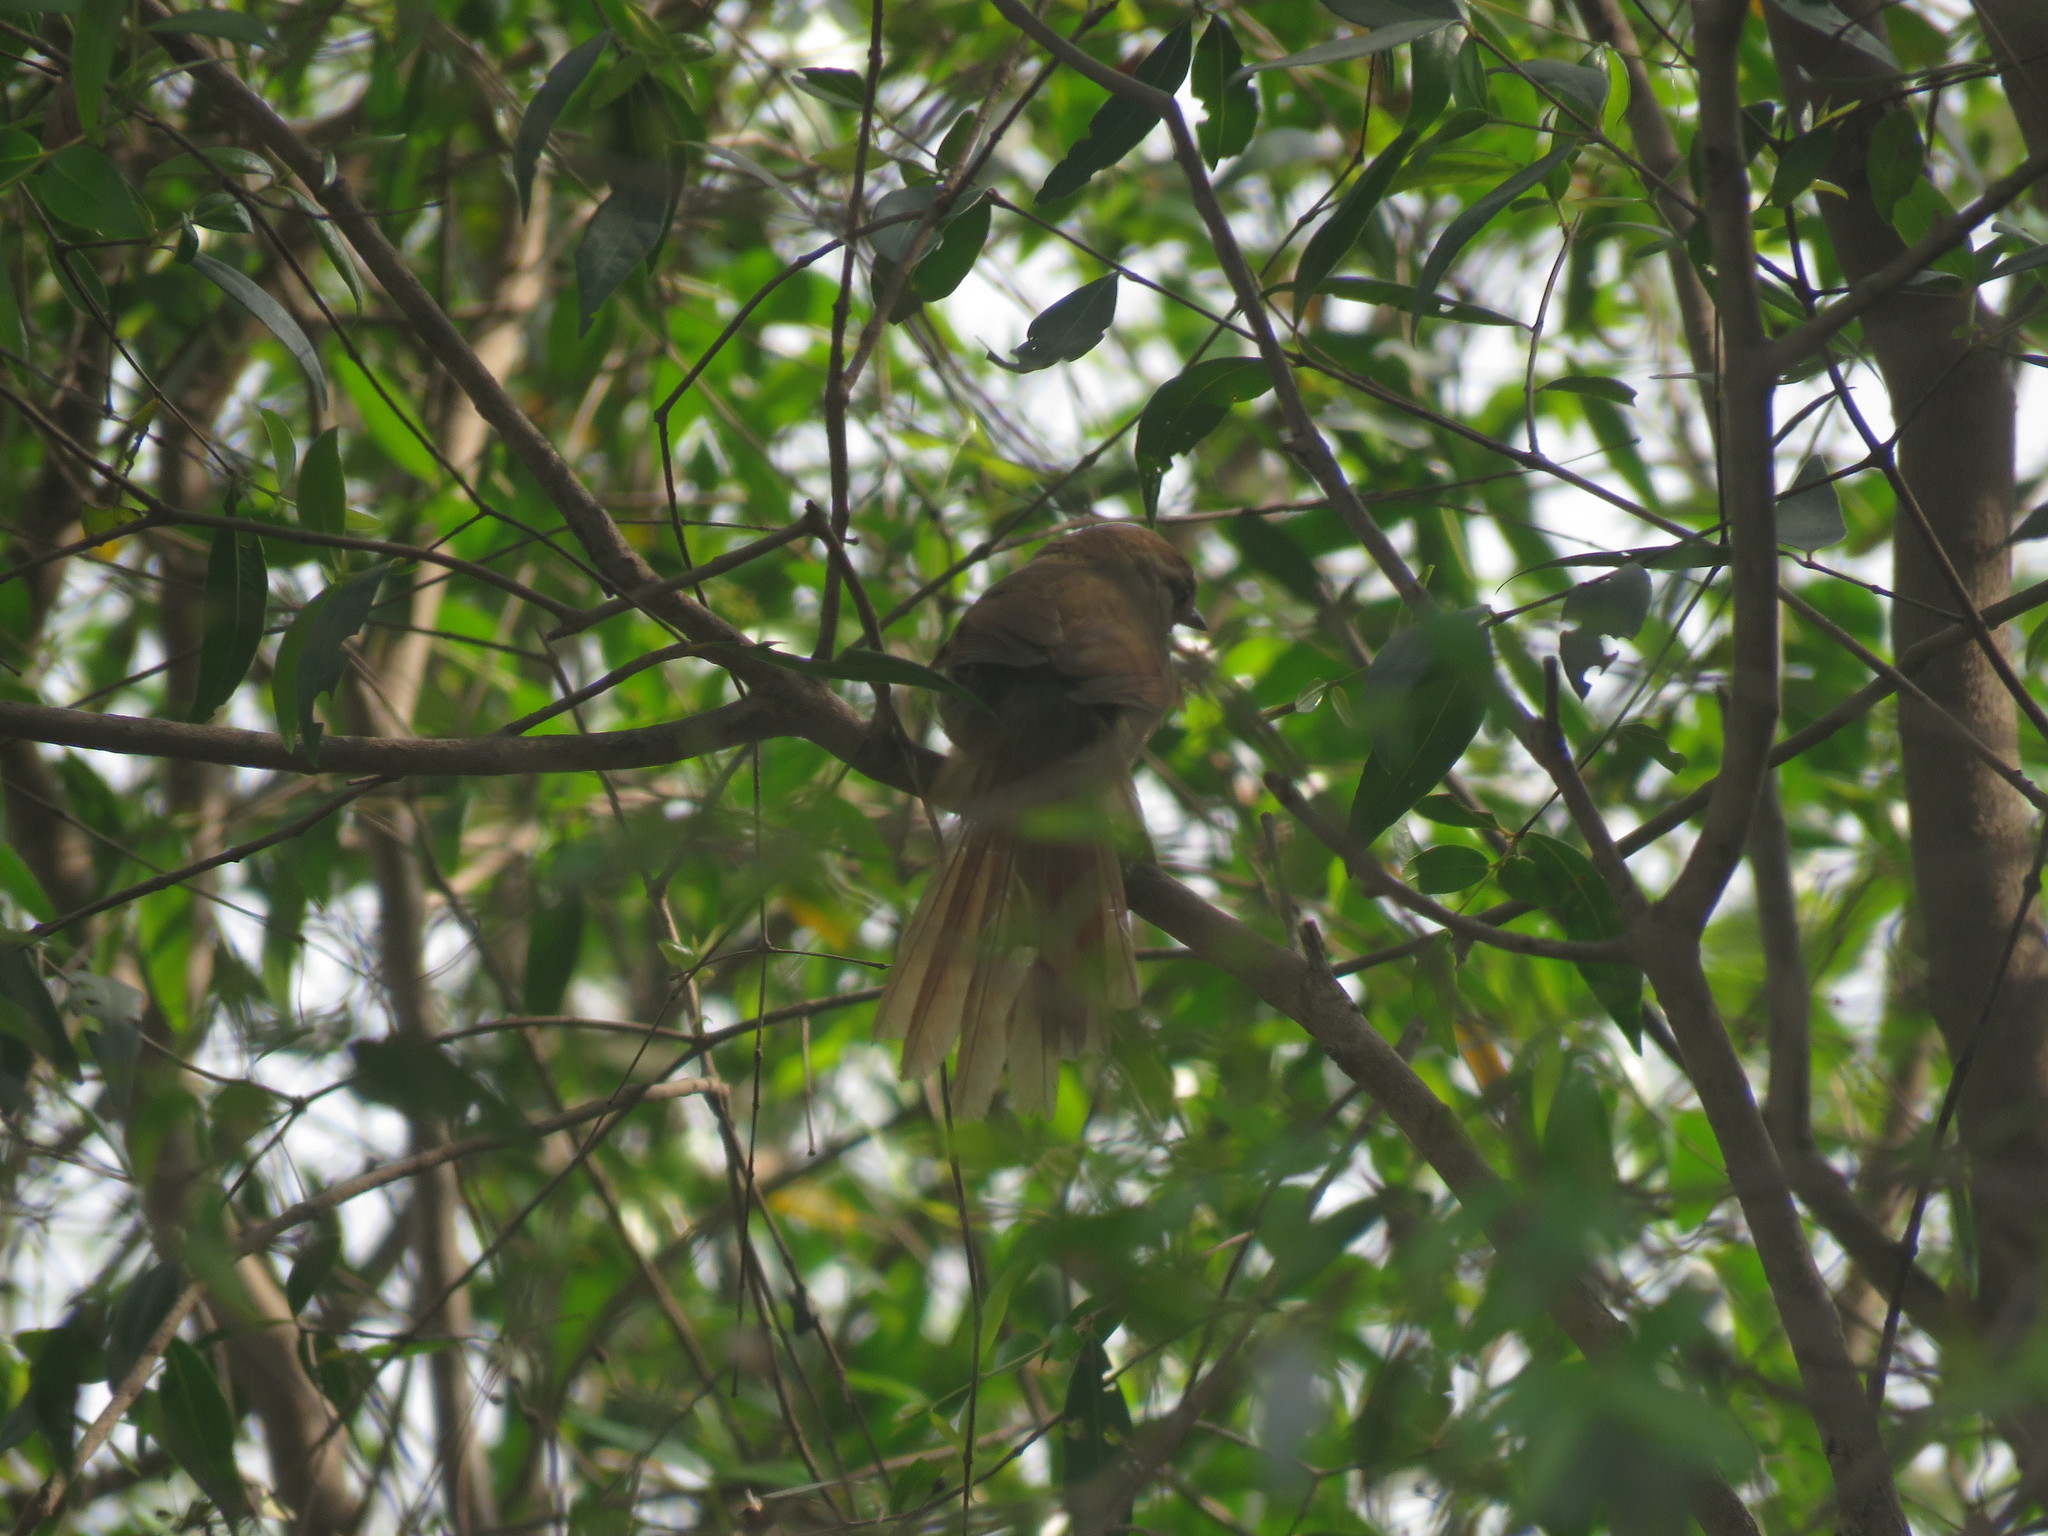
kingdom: Animalia
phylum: Chordata
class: Aves
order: Passeriformes
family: Furnariidae
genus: Synallaxis
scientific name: Synallaxis frontalis
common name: Sooty-fronted spinetail
